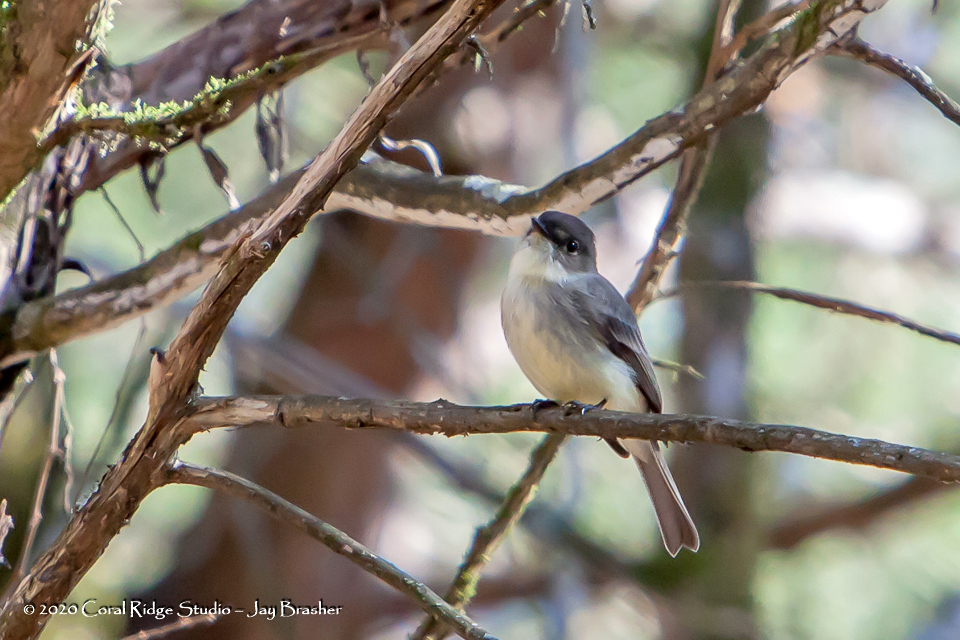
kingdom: Animalia
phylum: Chordata
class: Aves
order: Passeriformes
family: Tyrannidae
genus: Sayornis
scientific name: Sayornis phoebe
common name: Eastern phoebe
